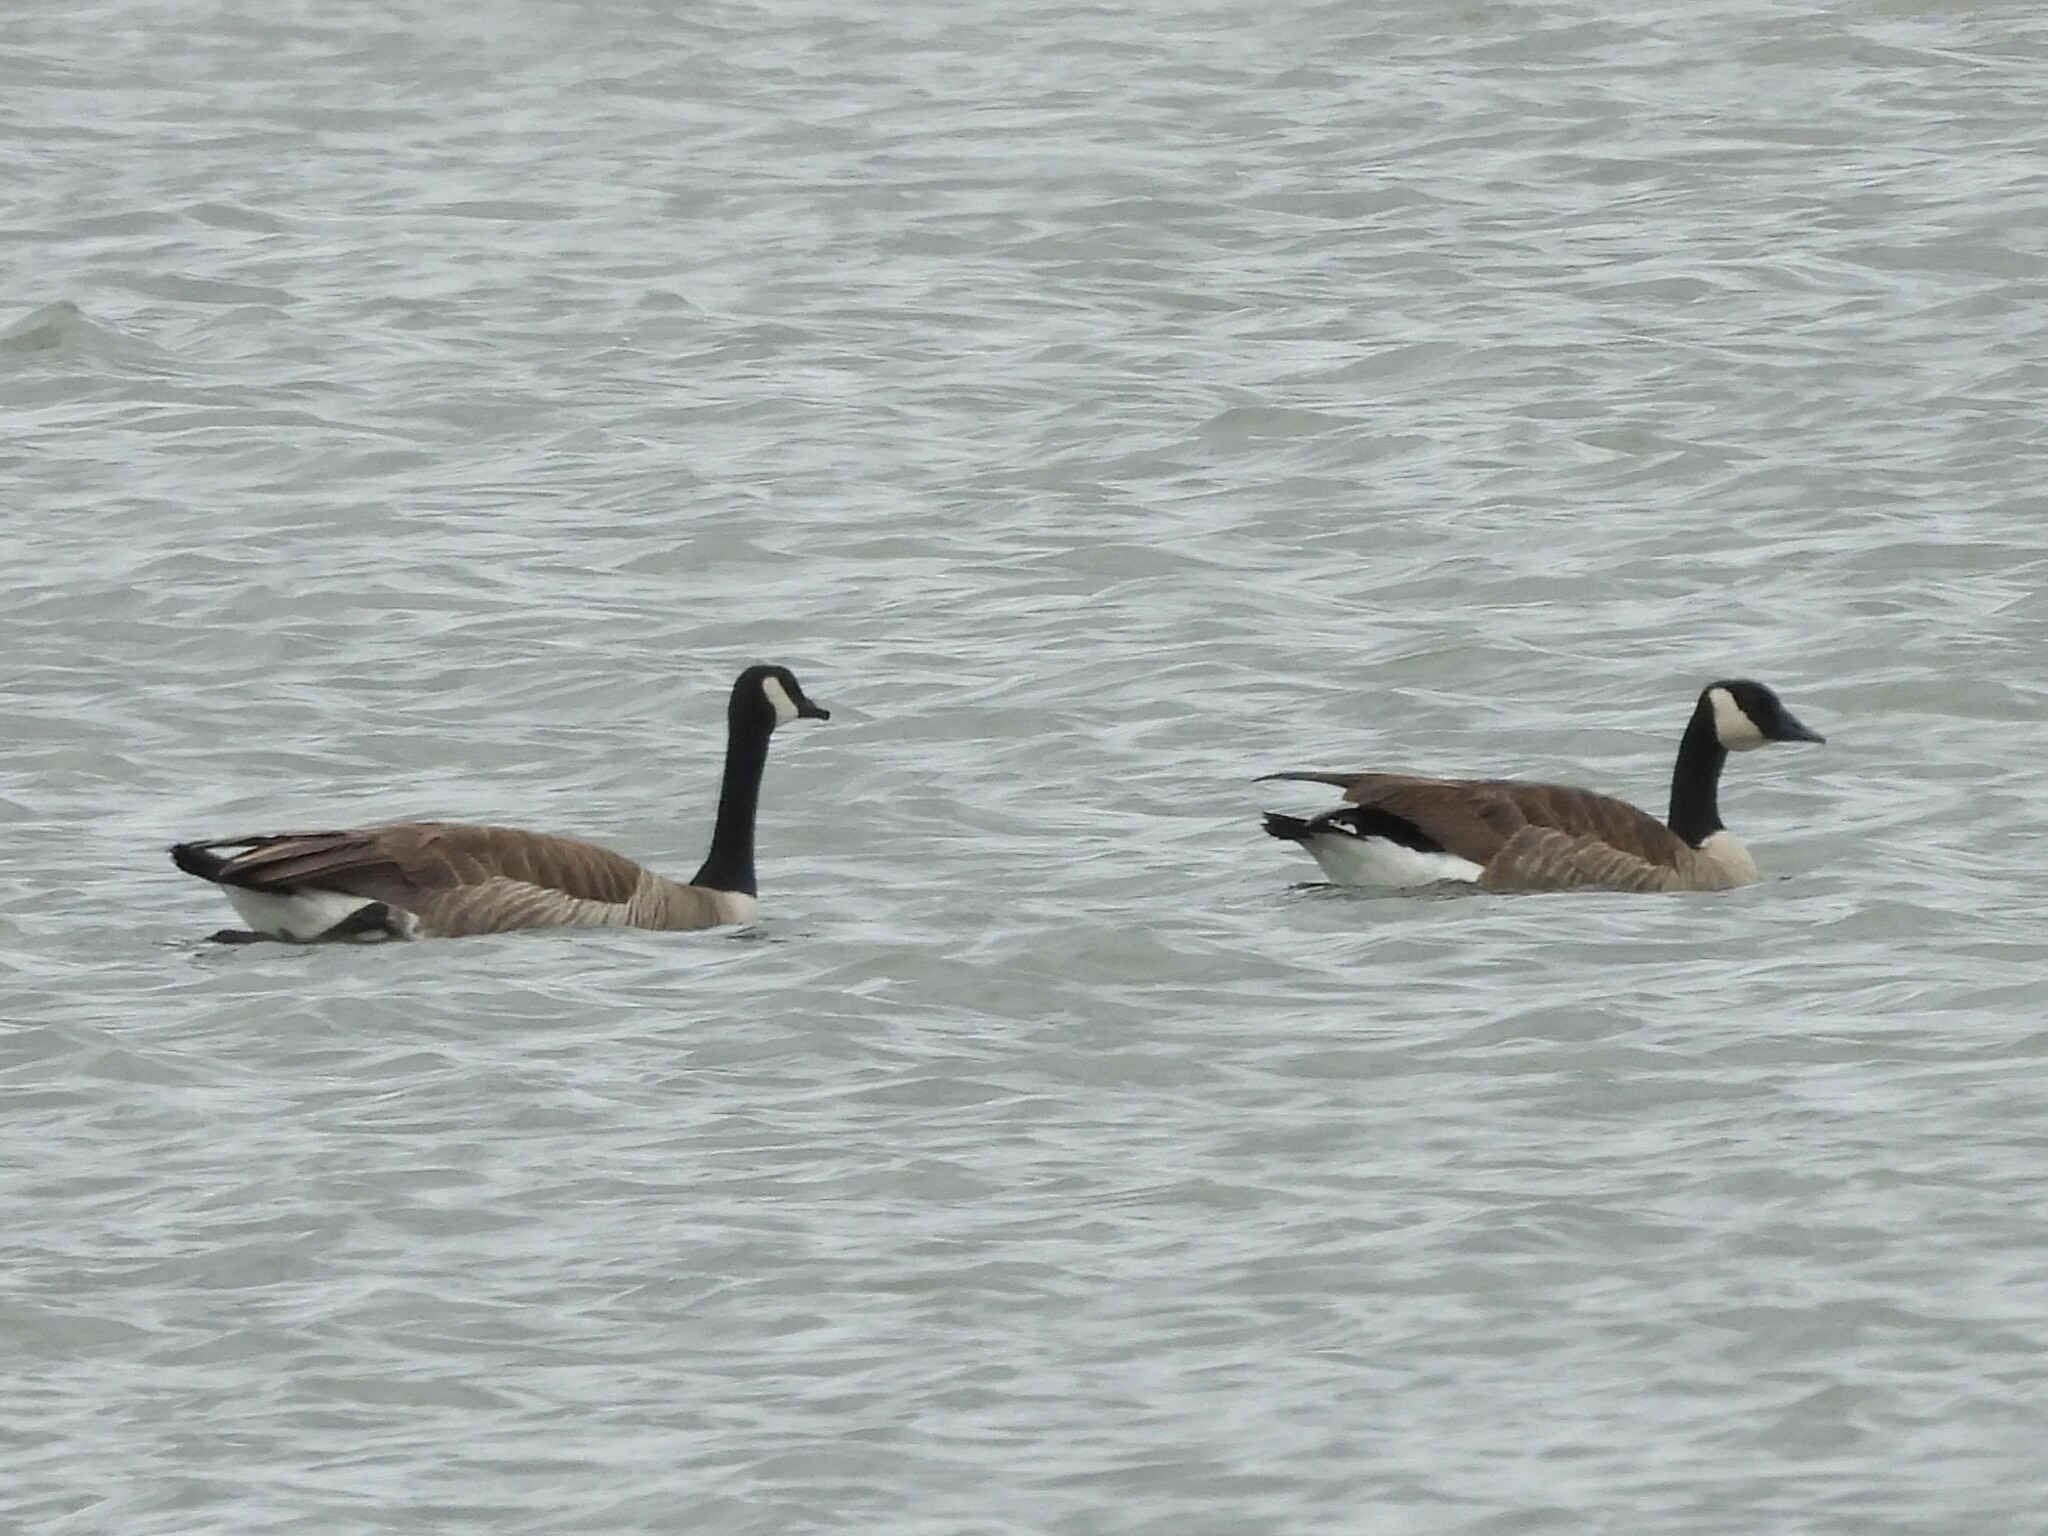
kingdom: Animalia
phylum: Chordata
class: Aves
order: Anseriformes
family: Anatidae
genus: Branta
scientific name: Branta canadensis
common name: Canada goose
